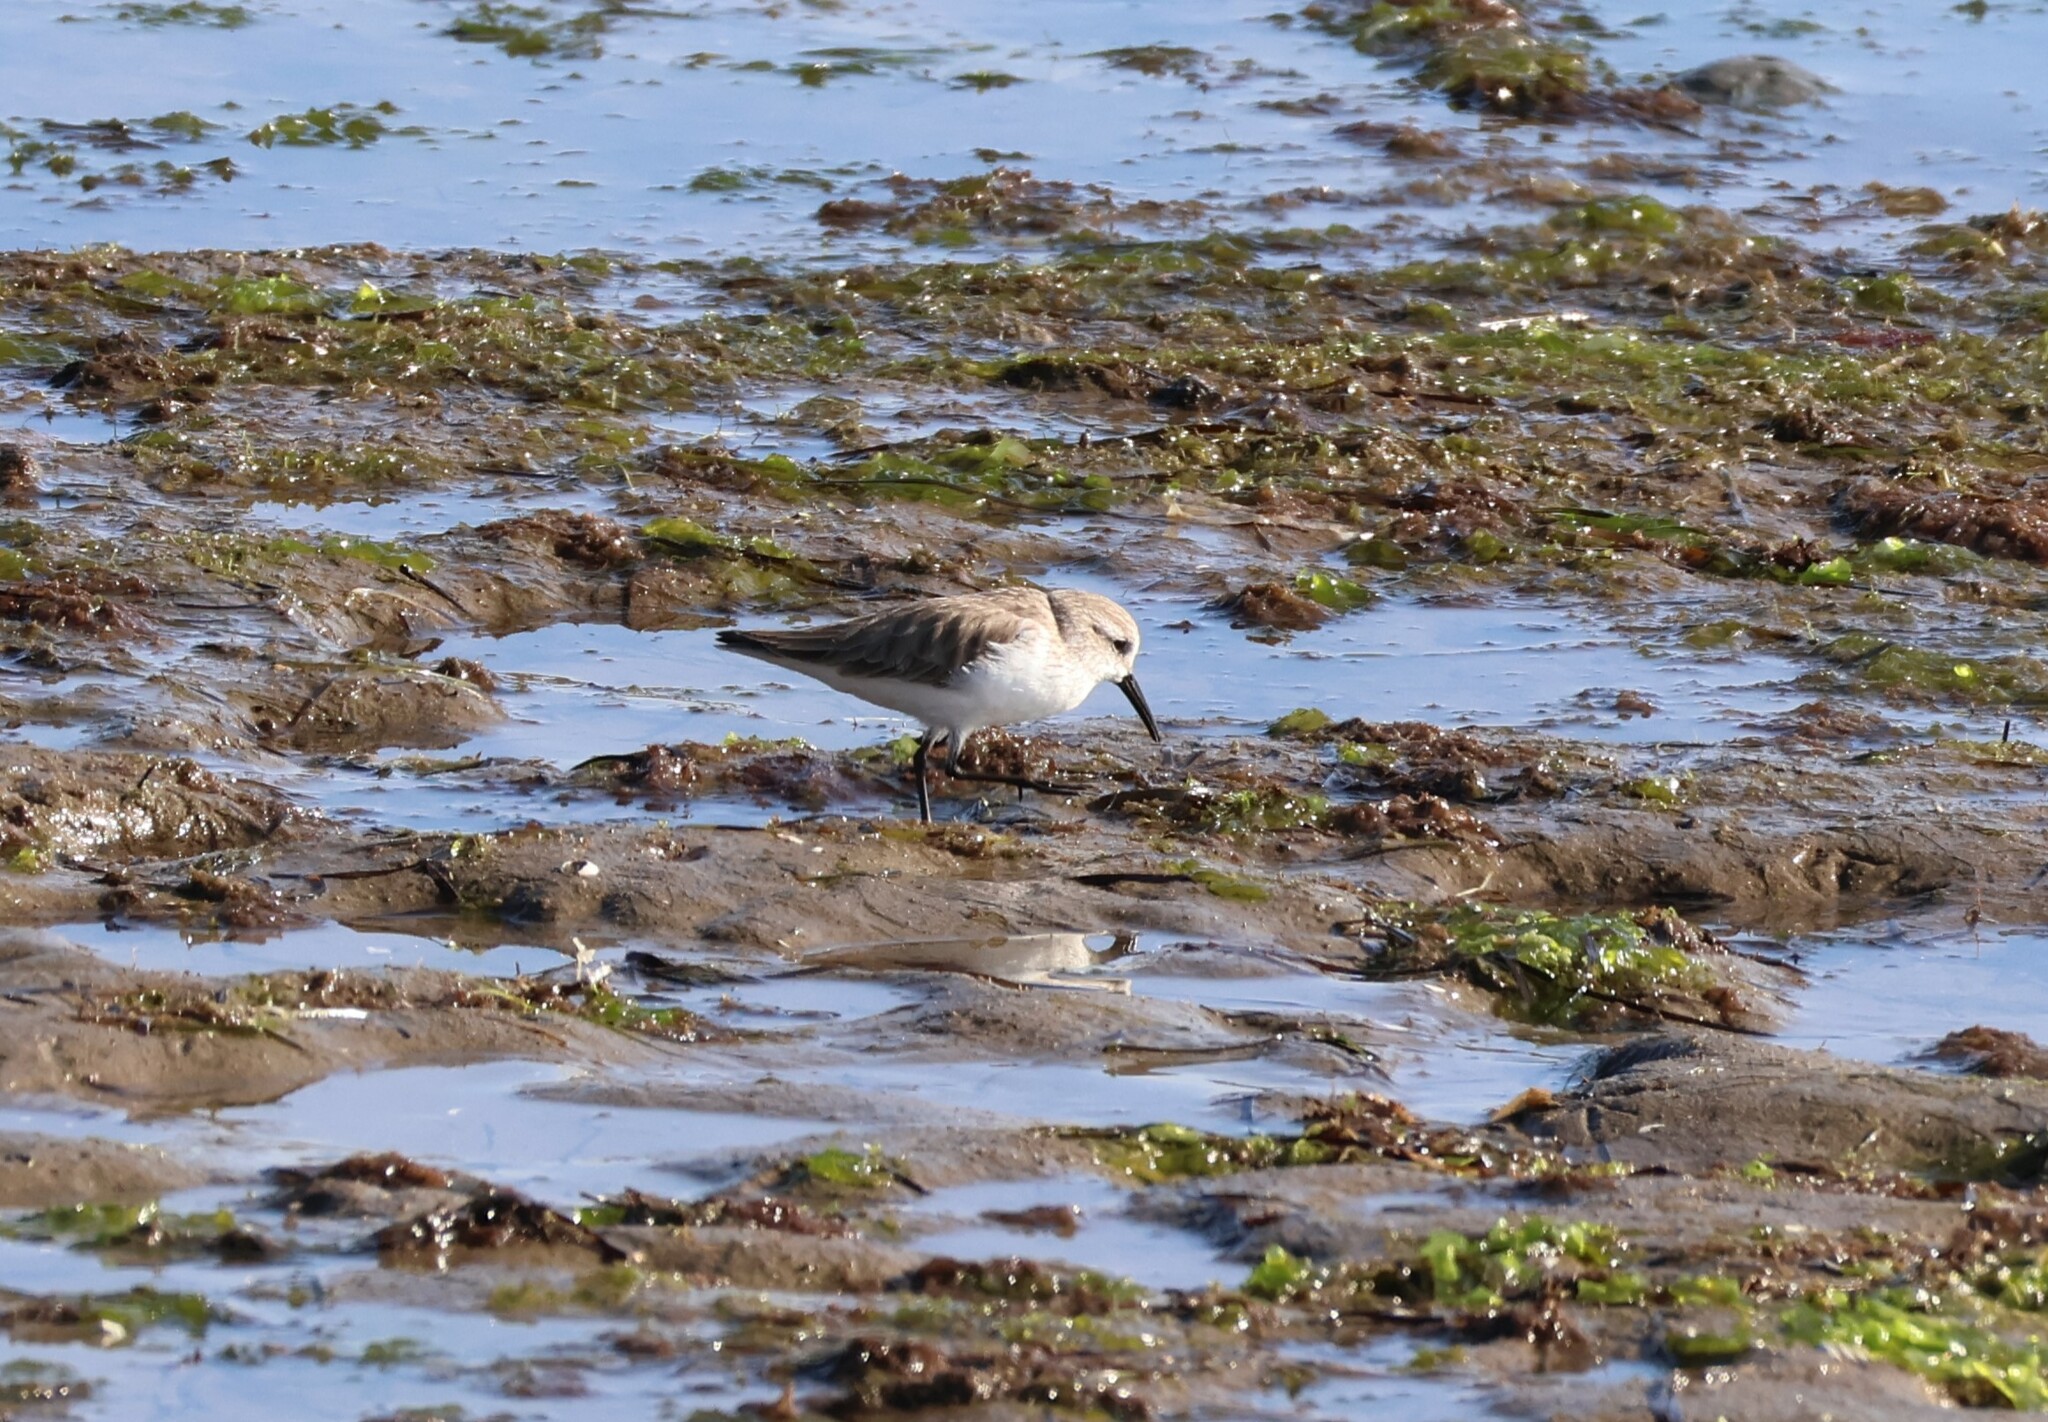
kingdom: Animalia
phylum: Chordata
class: Aves
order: Charadriiformes
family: Scolopacidae
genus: Calidris
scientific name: Calidris mauri
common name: Western sandpiper
